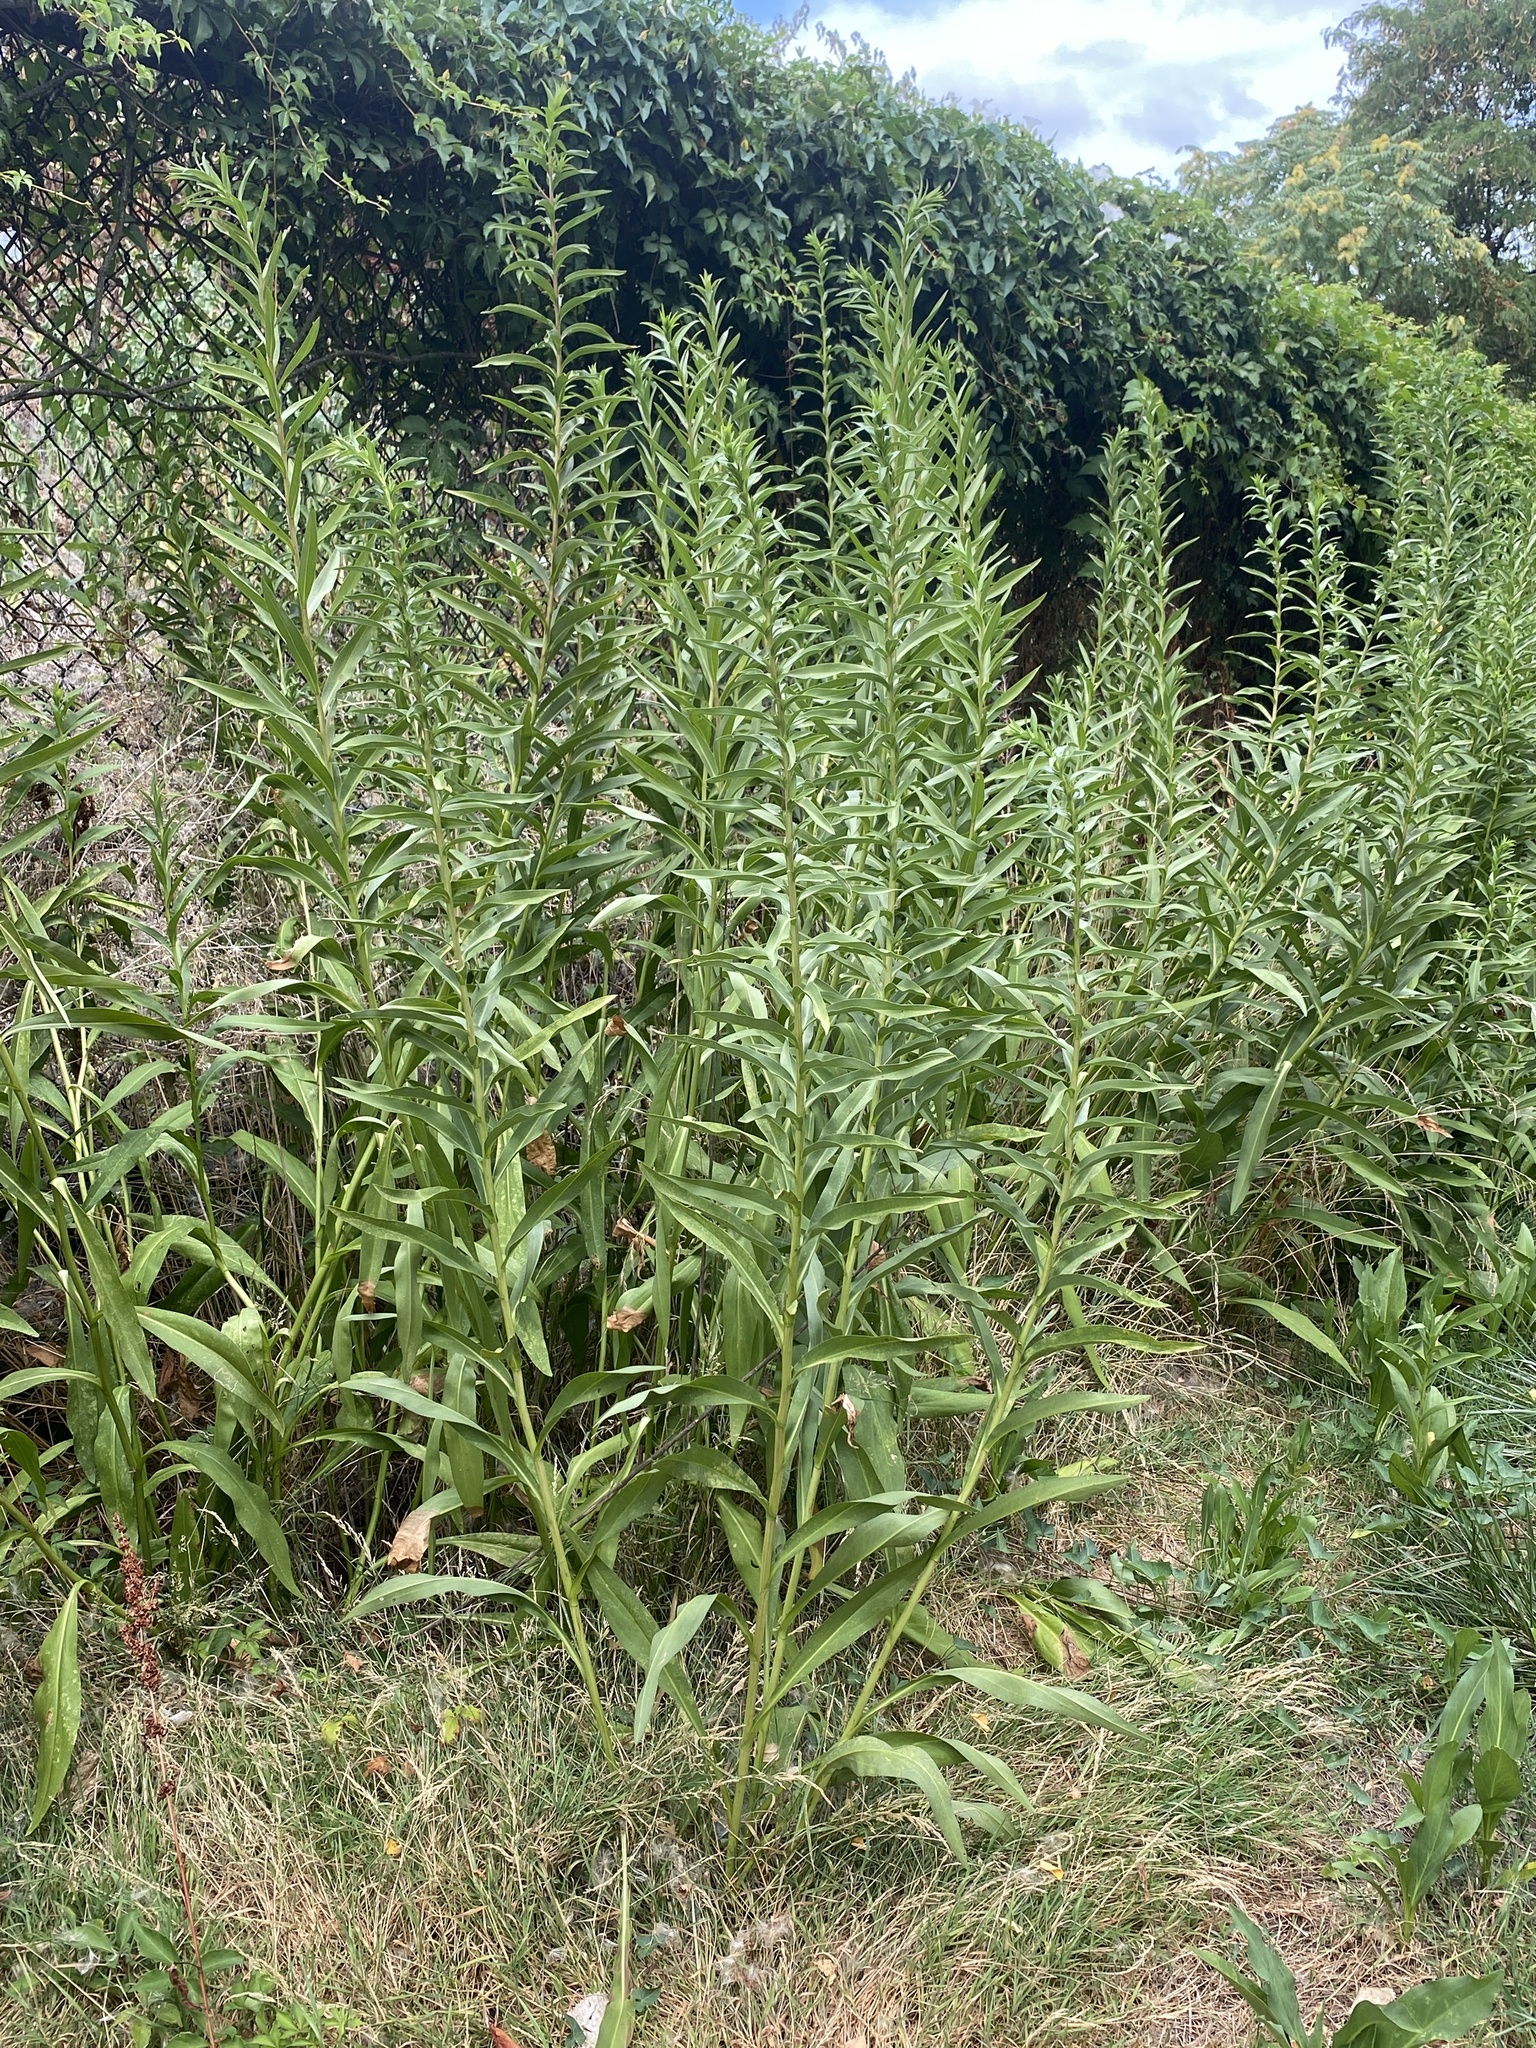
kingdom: Plantae
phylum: Tracheophyta
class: Magnoliopsida
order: Asterales
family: Asteraceae
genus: Solidago
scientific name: Solidago sempervirens
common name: Salt-marsh goldenrod
